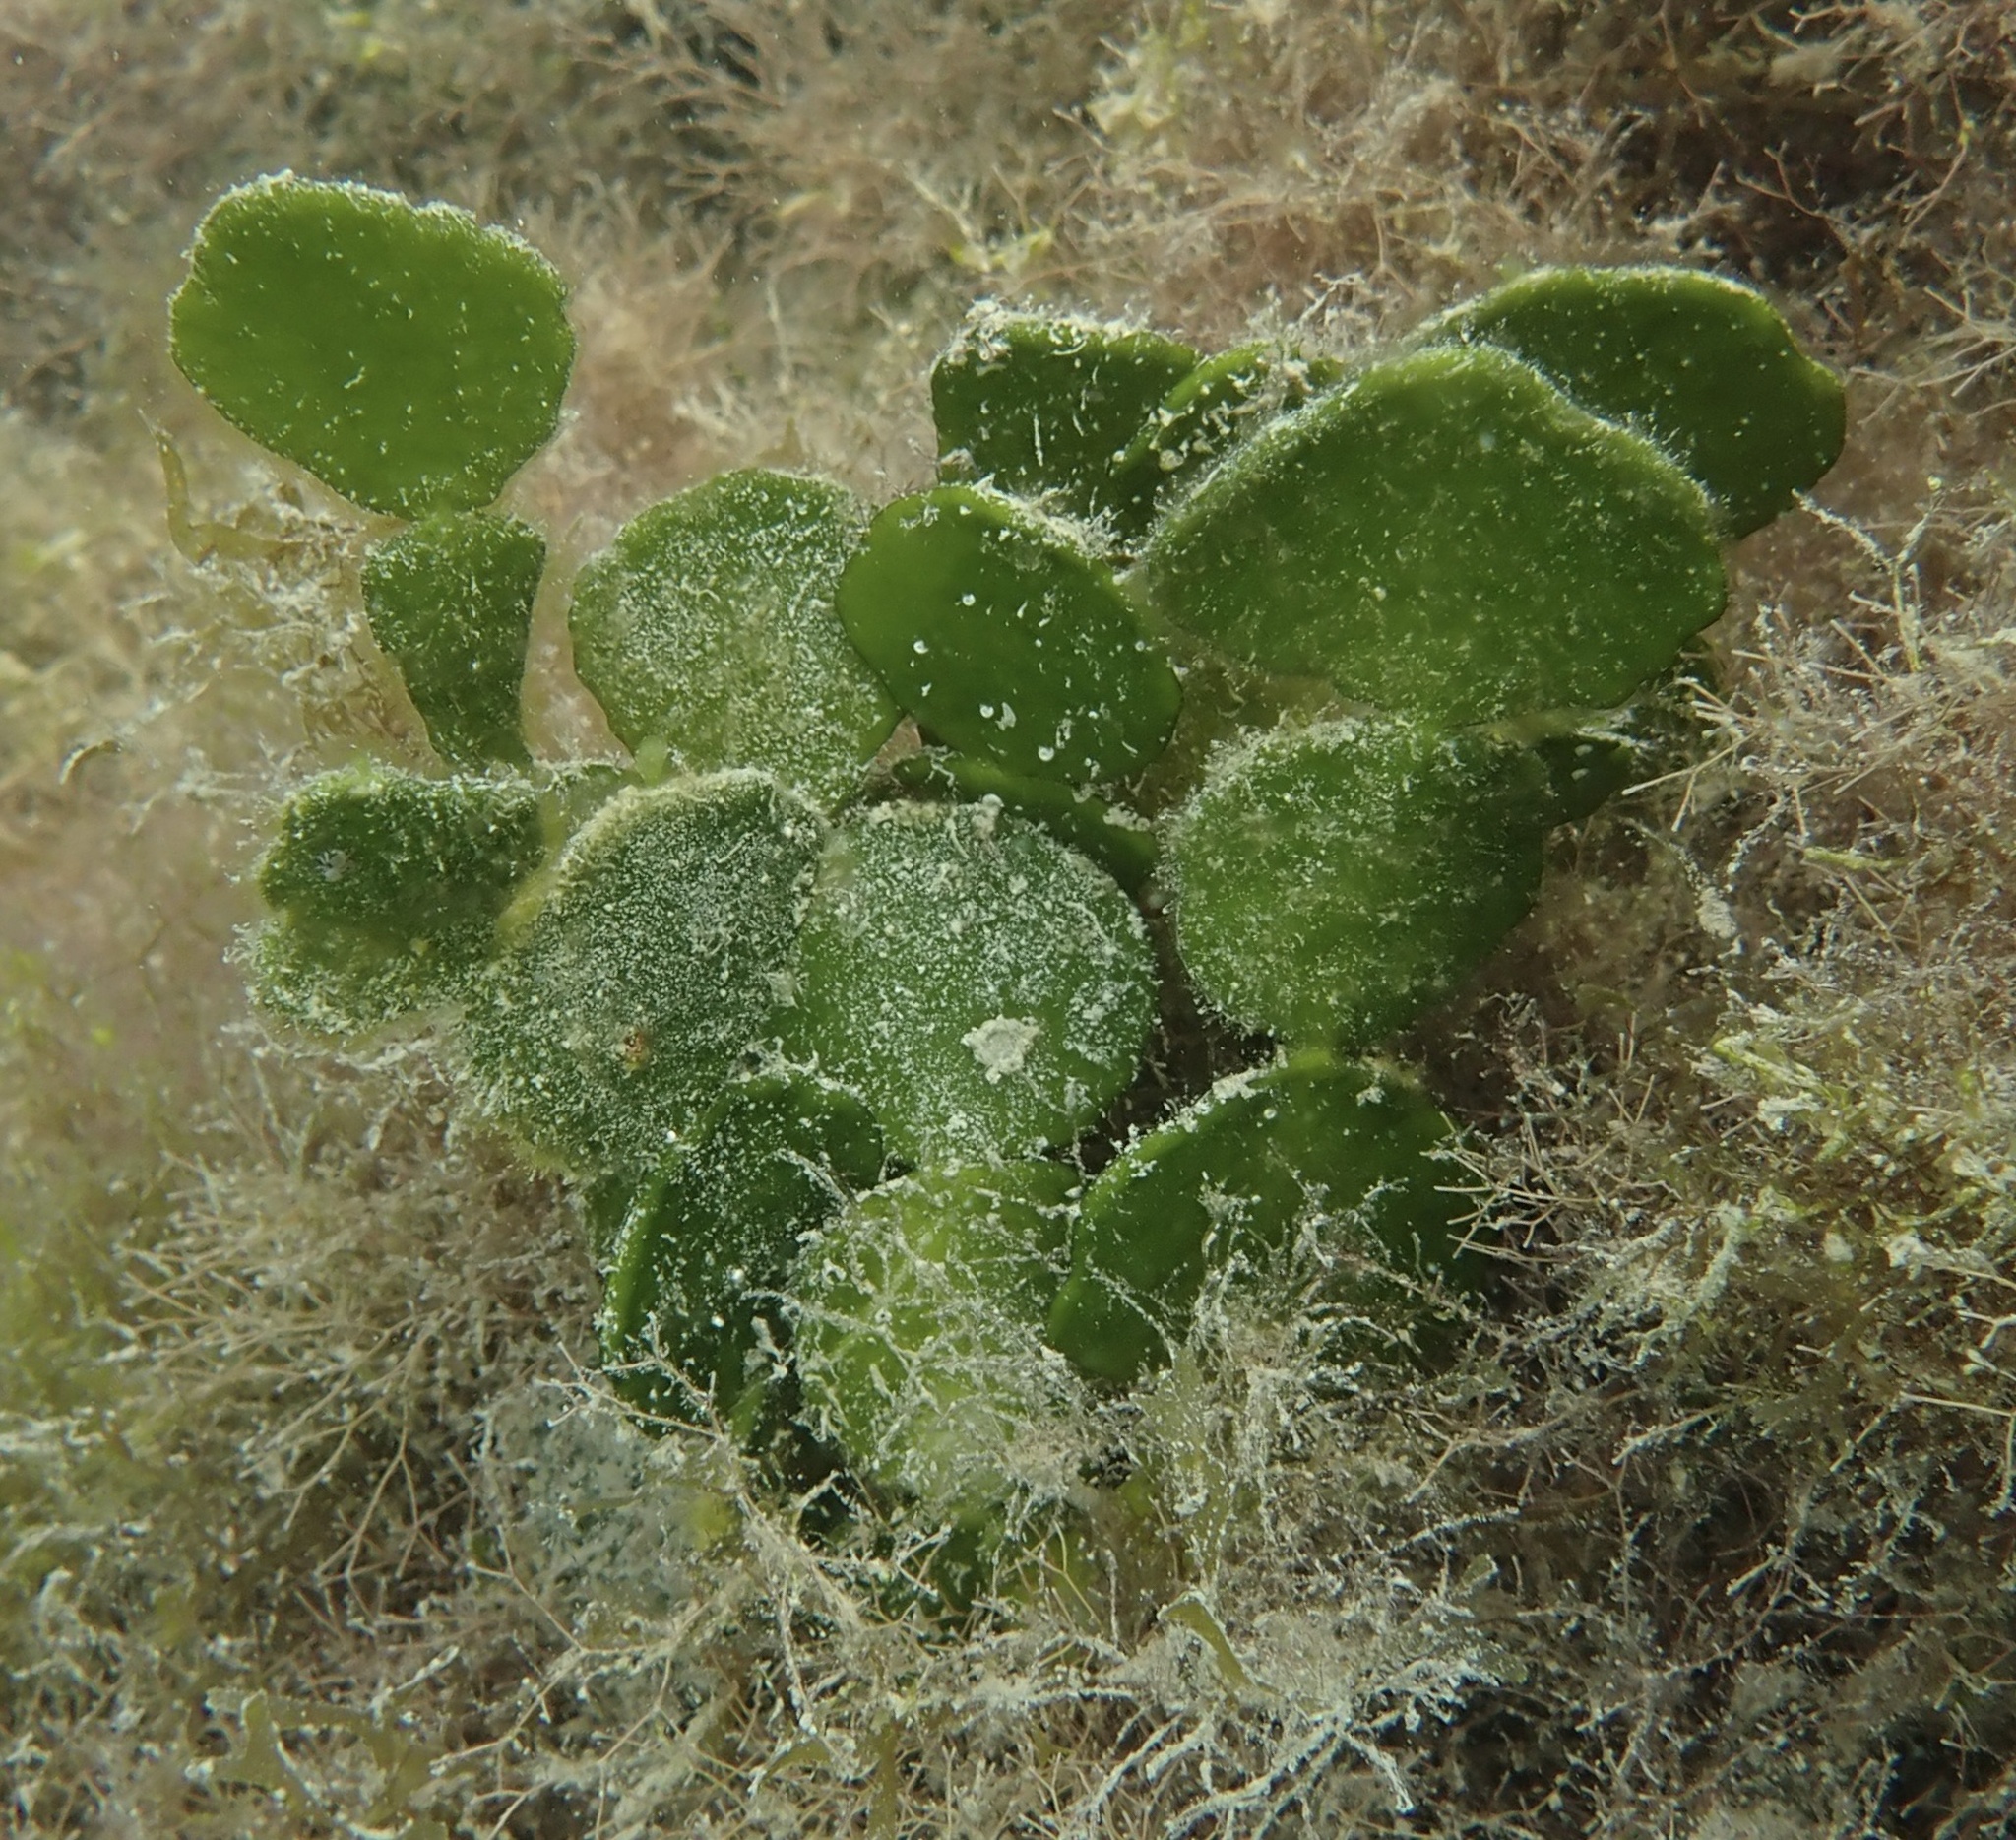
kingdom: Plantae
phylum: Chlorophyta
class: Ulvophyceae
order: Bryopsidales
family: Halimedaceae
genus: Halimeda
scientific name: Halimeda tuna
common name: Stalked lettuce leaf algae
